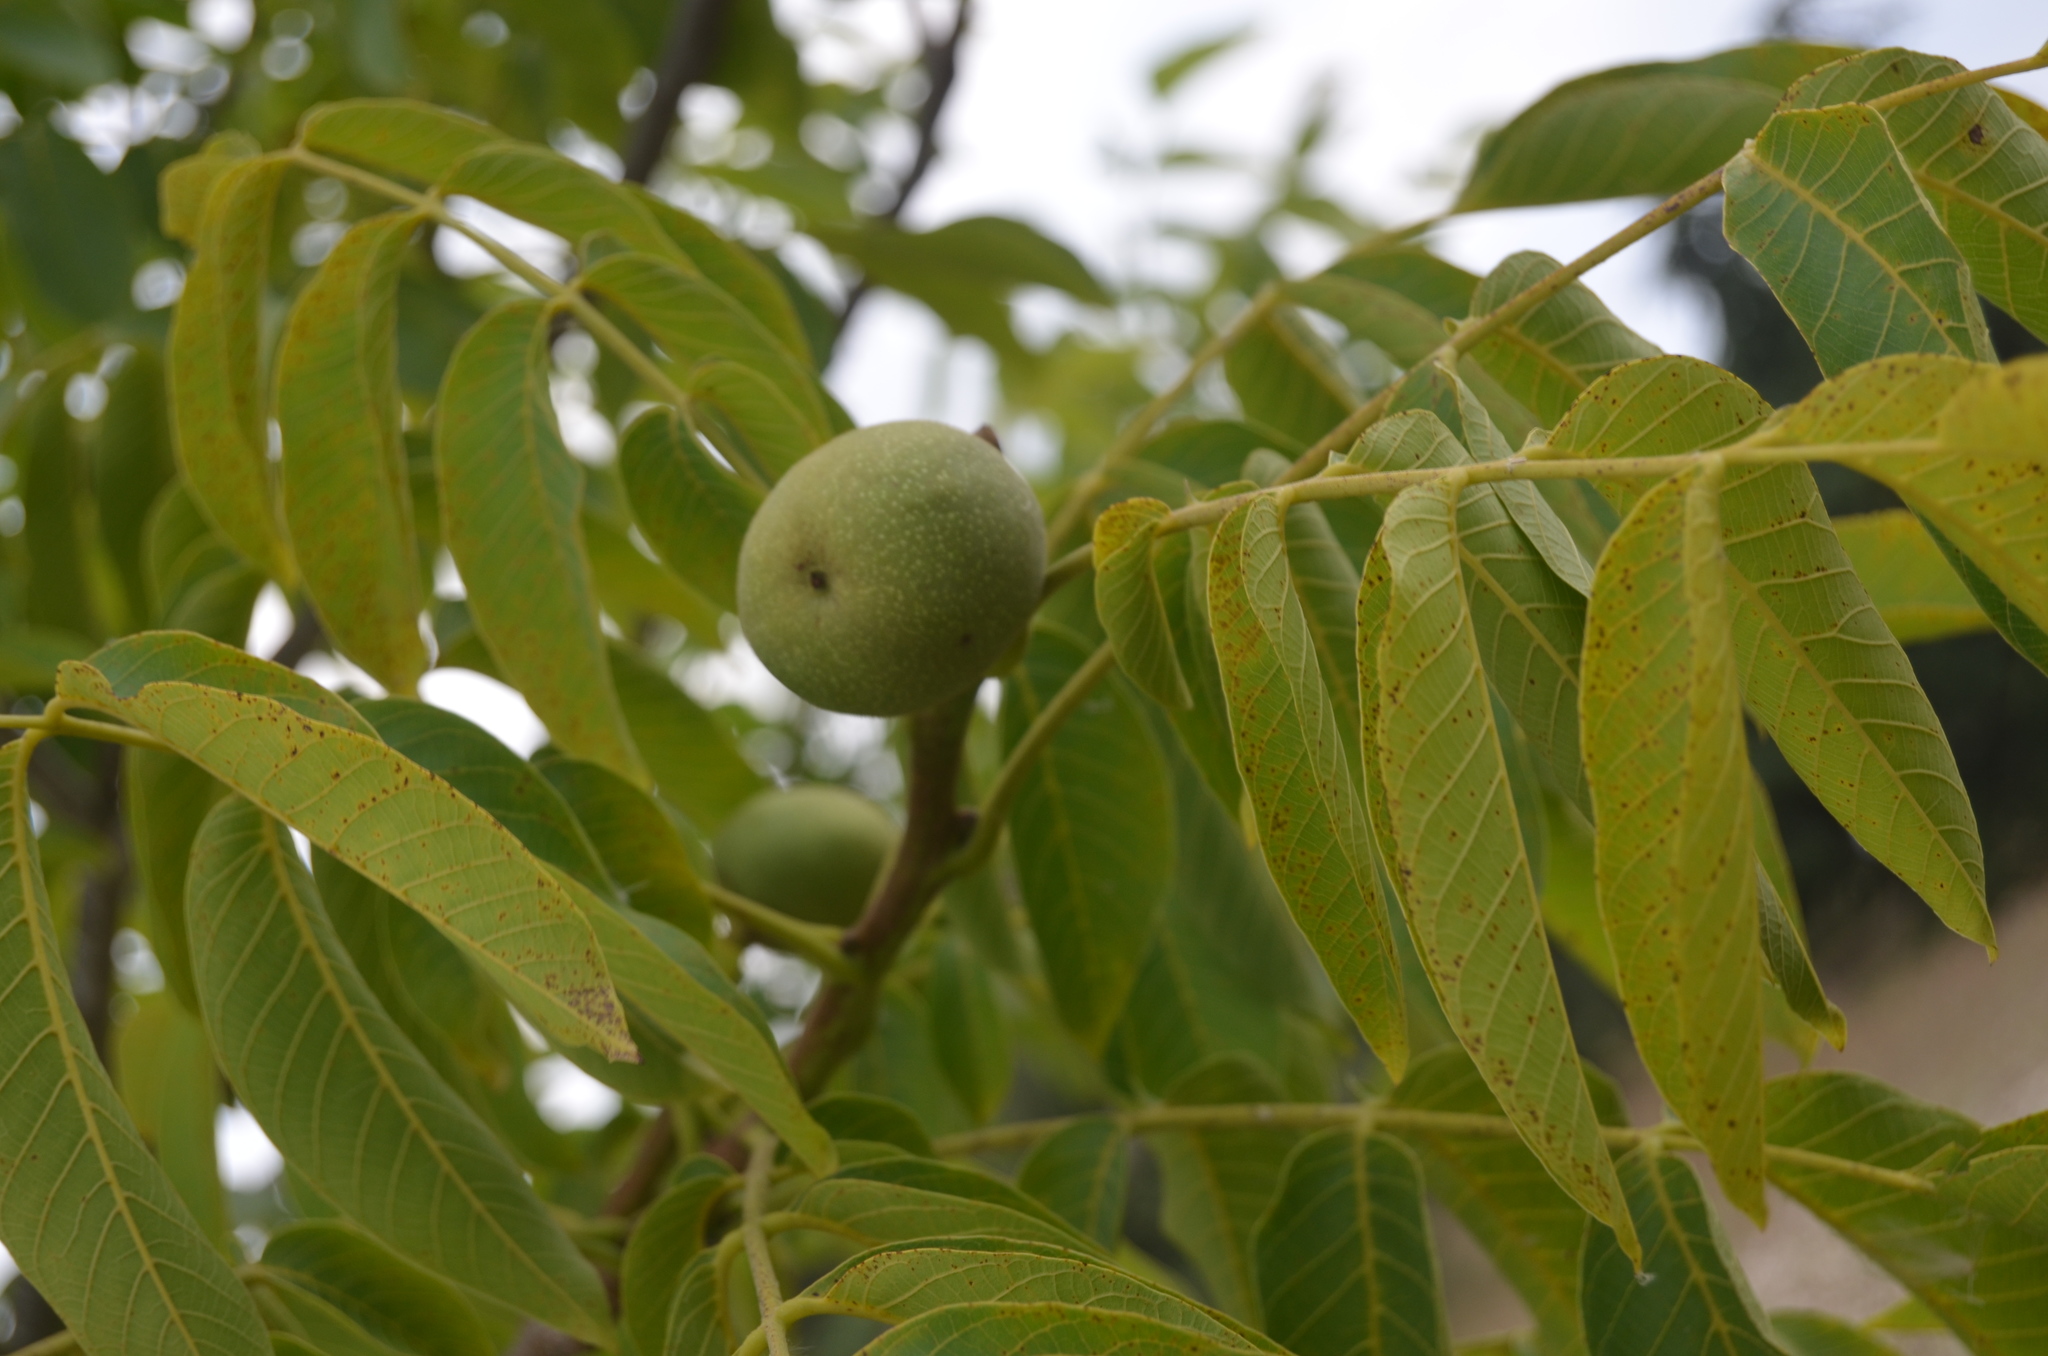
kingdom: Plantae
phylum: Tracheophyta
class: Magnoliopsida
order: Fagales
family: Juglandaceae
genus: Juglans
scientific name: Juglans regia
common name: Walnut
